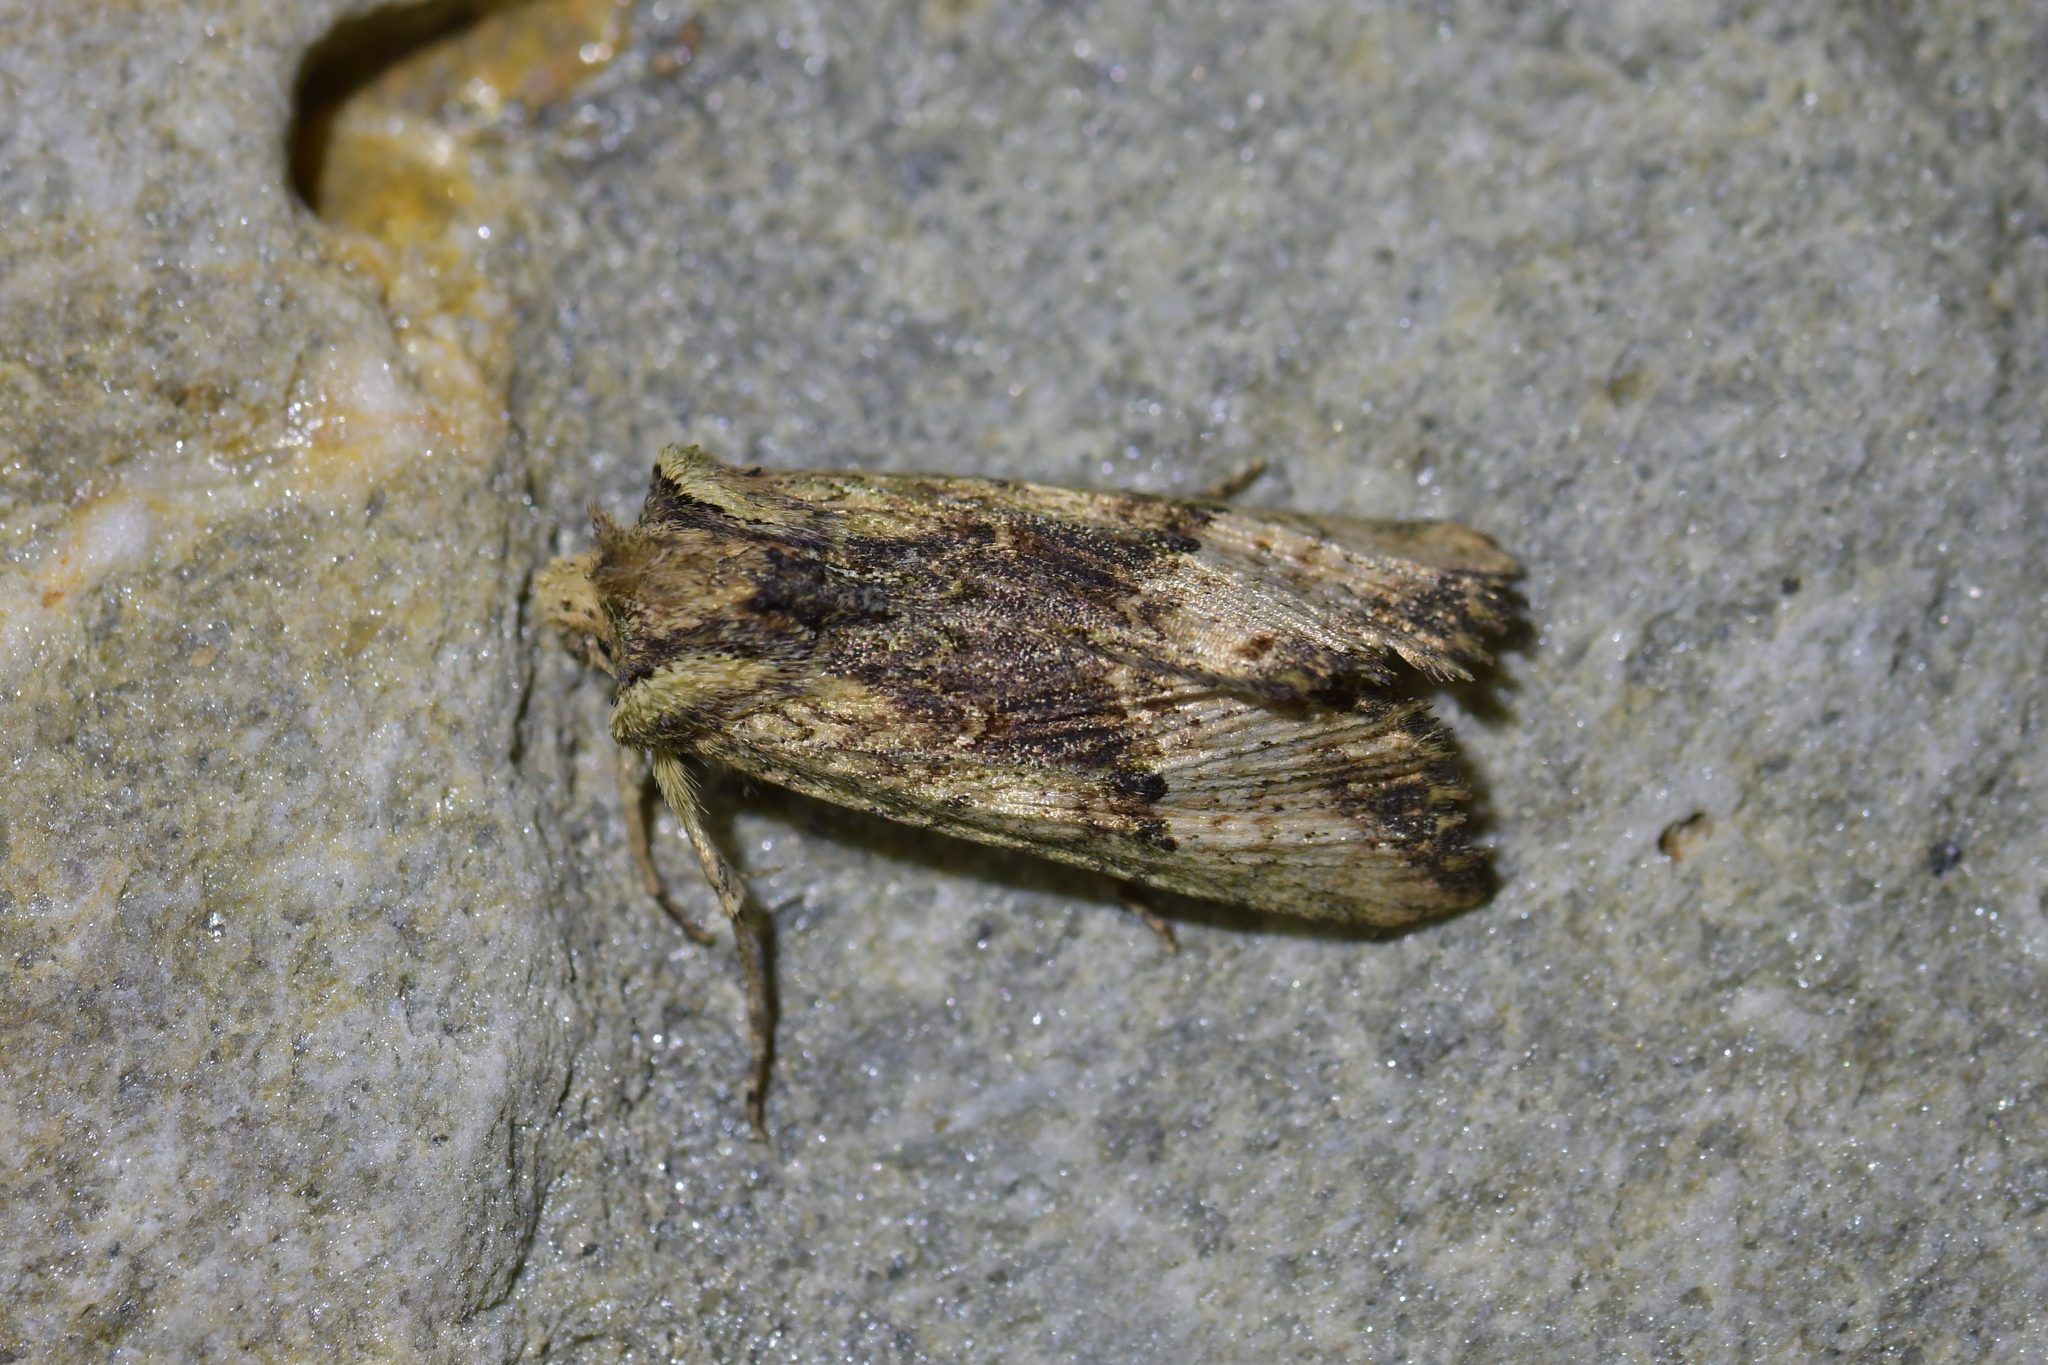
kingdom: Animalia
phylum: Arthropoda
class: Insecta
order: Lepidoptera
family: Noctuidae
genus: Meterana
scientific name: Meterana coeleno
